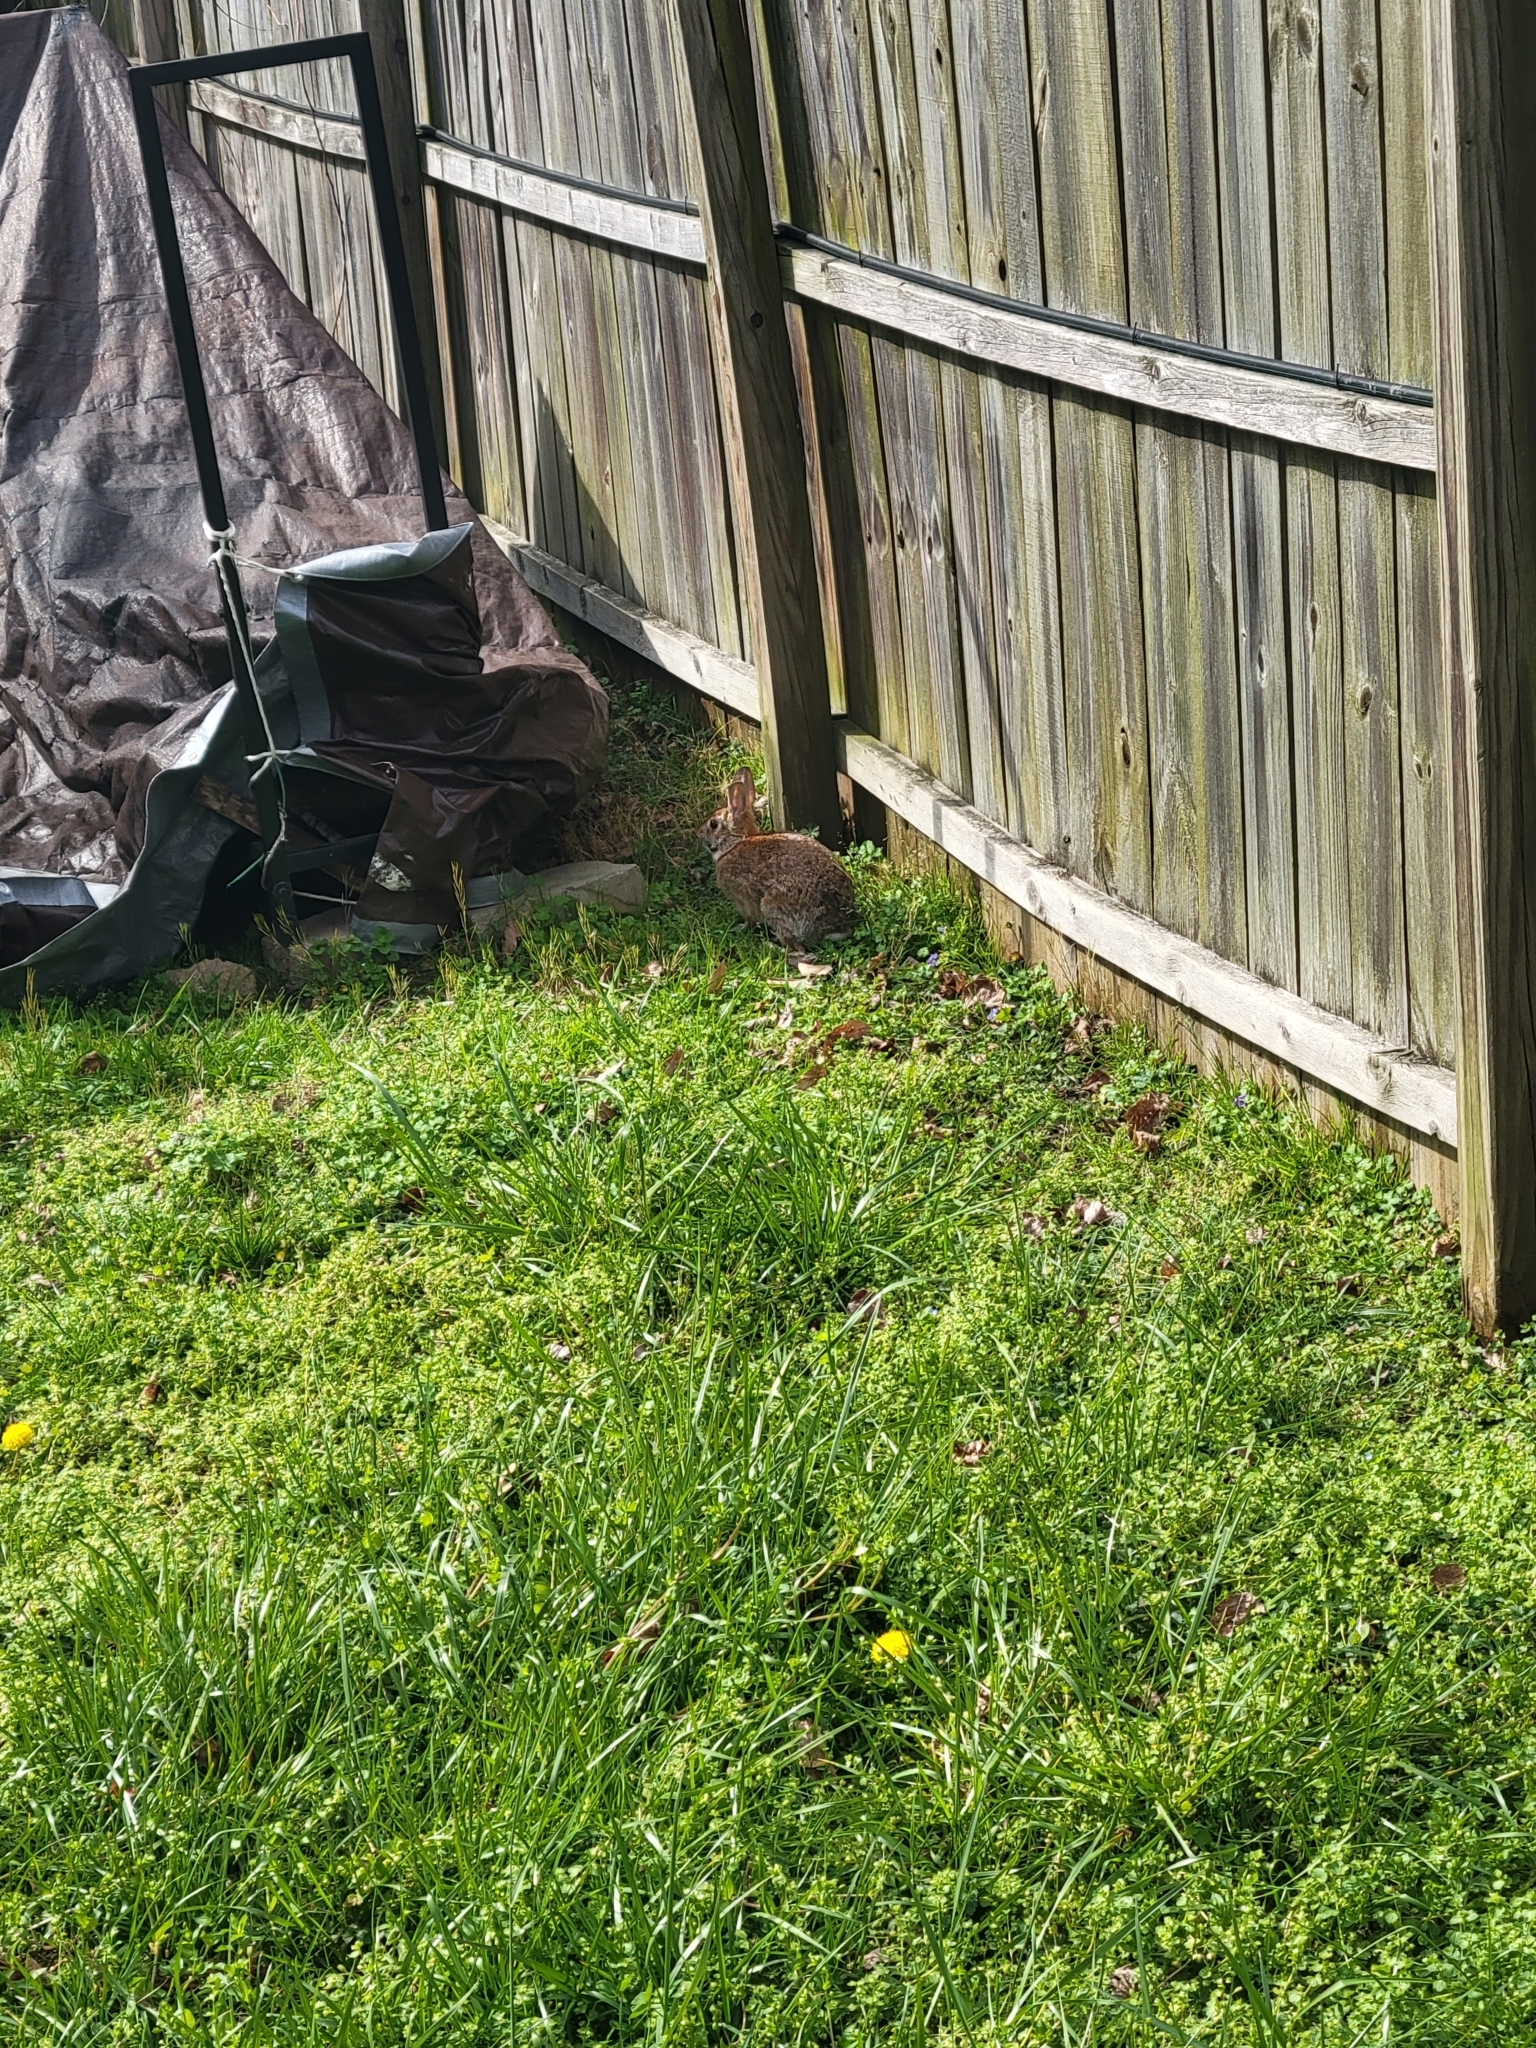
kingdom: Animalia
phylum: Chordata
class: Mammalia
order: Lagomorpha
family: Leporidae
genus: Sylvilagus
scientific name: Sylvilagus floridanus
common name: Eastern cottontail
